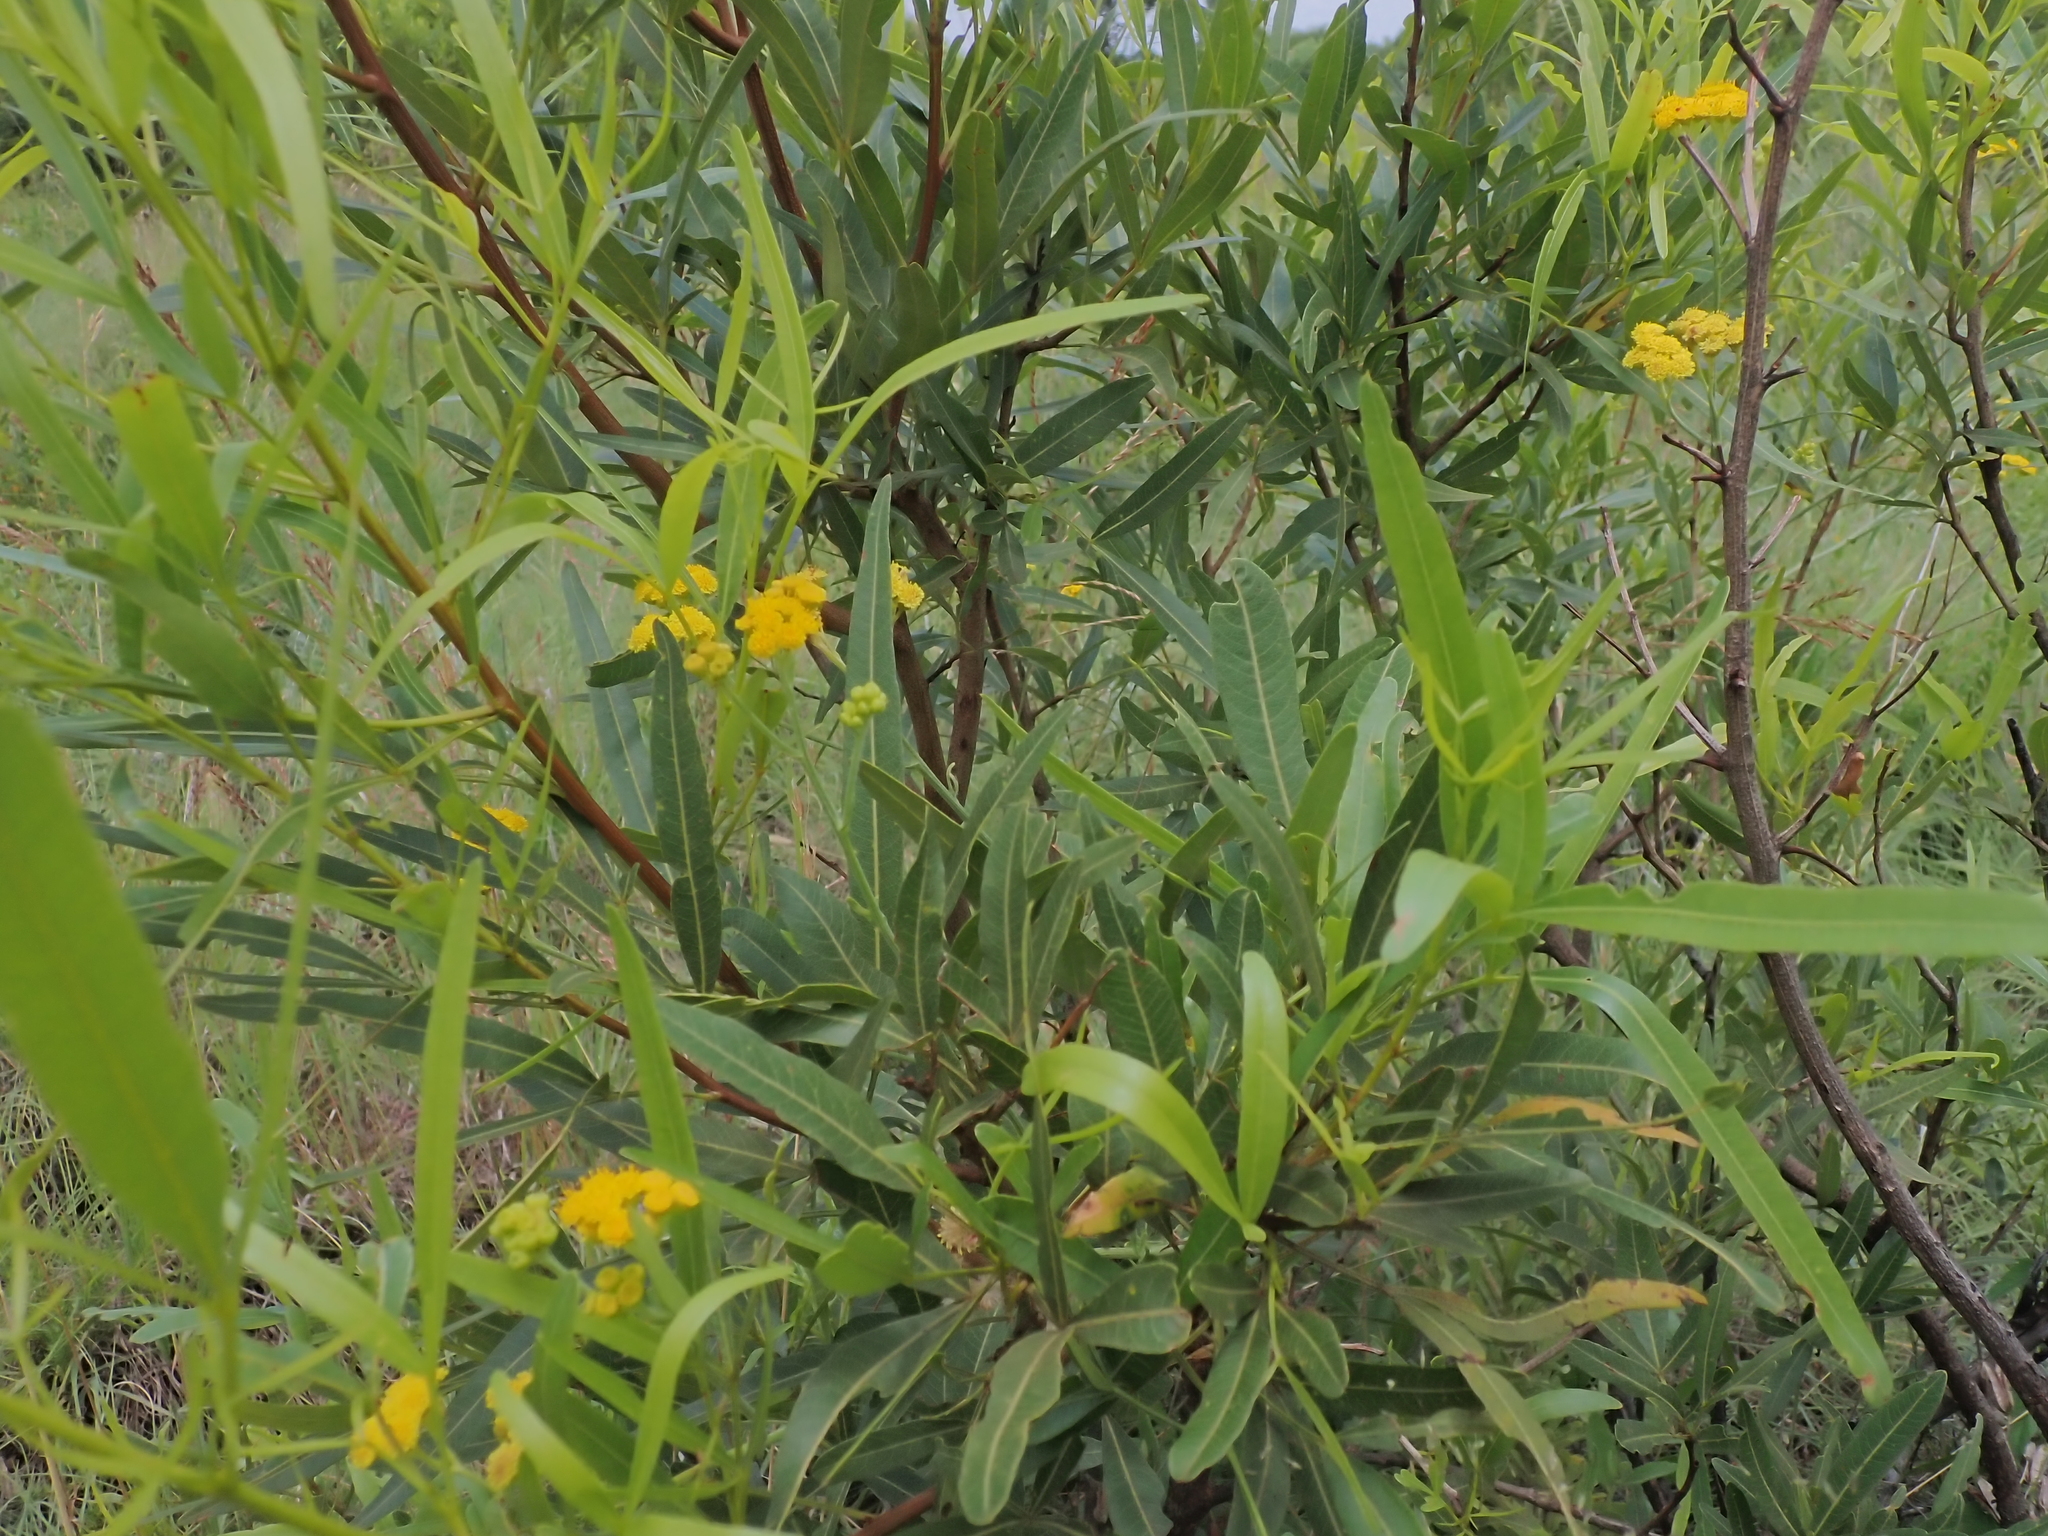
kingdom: Plantae
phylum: Tracheophyta
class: Magnoliopsida
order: Asterales
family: Asteraceae
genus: Psiadia
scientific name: Psiadia punctulata
